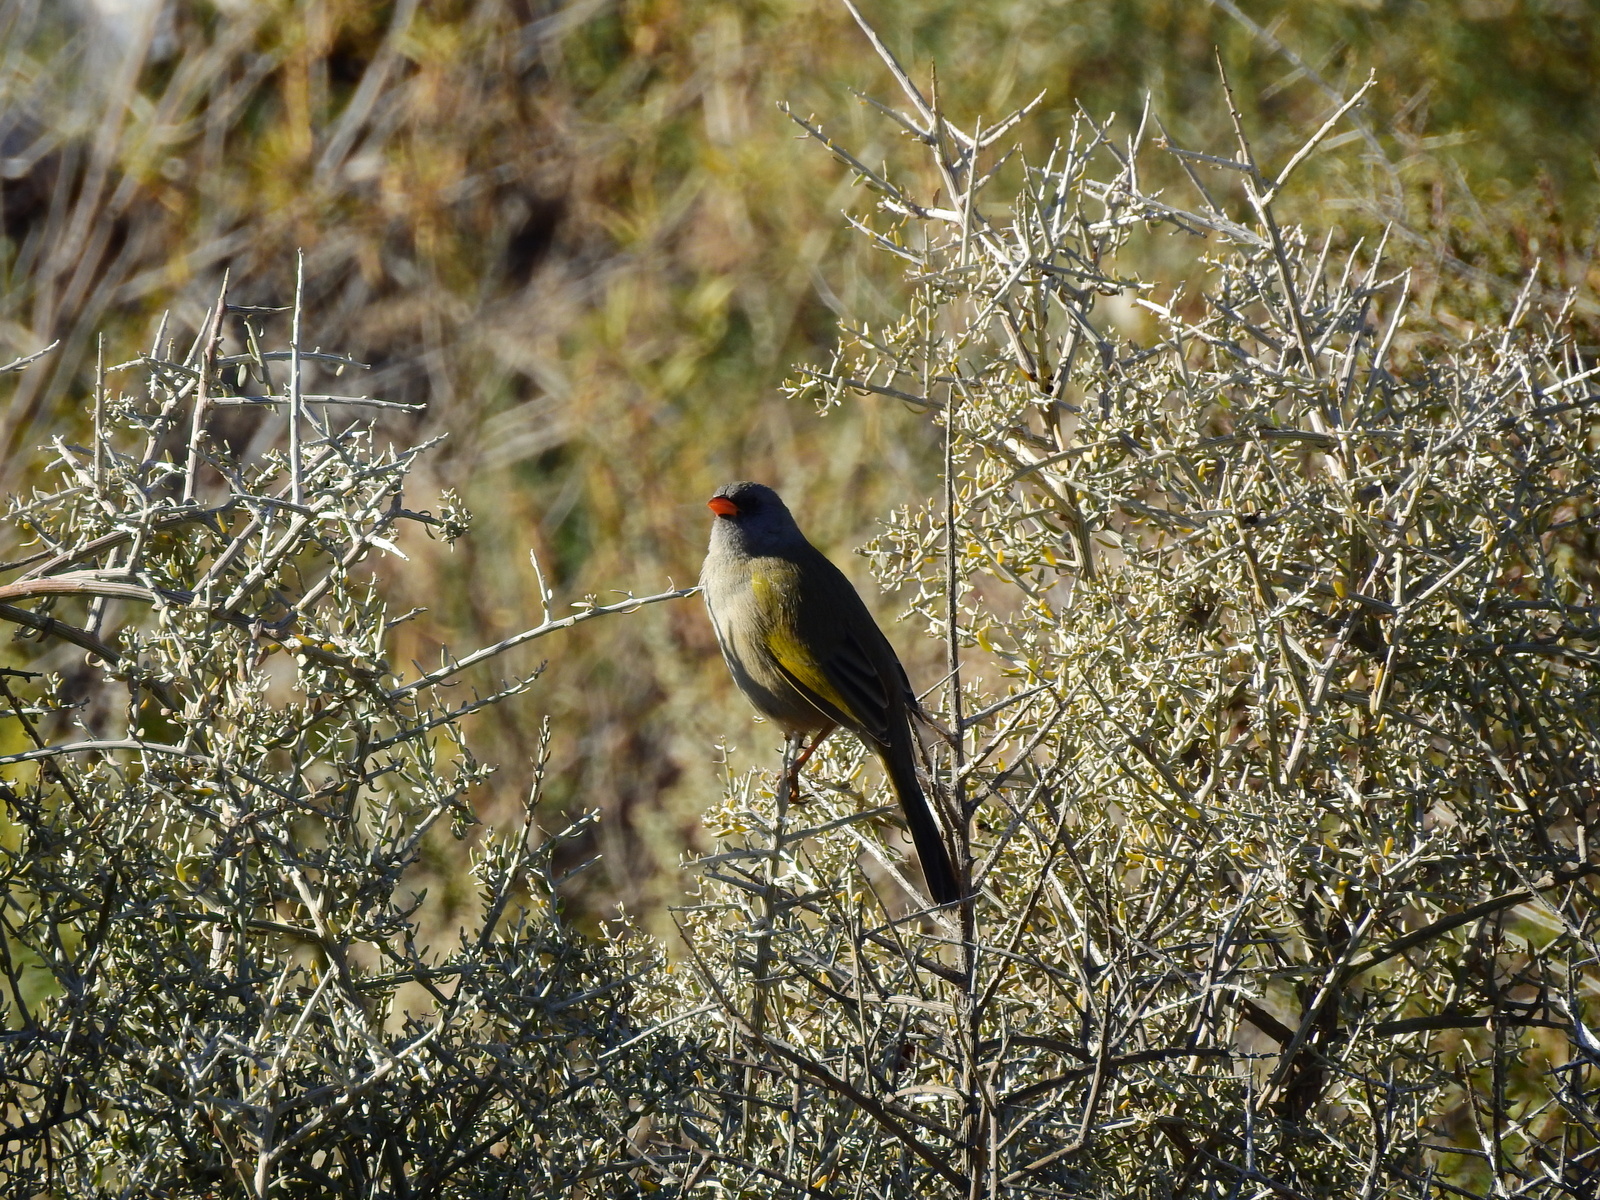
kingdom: Animalia
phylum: Chordata
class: Aves
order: Passeriformes
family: Thraupidae
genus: Embernagra
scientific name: Embernagra platensis
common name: Pampa finch
